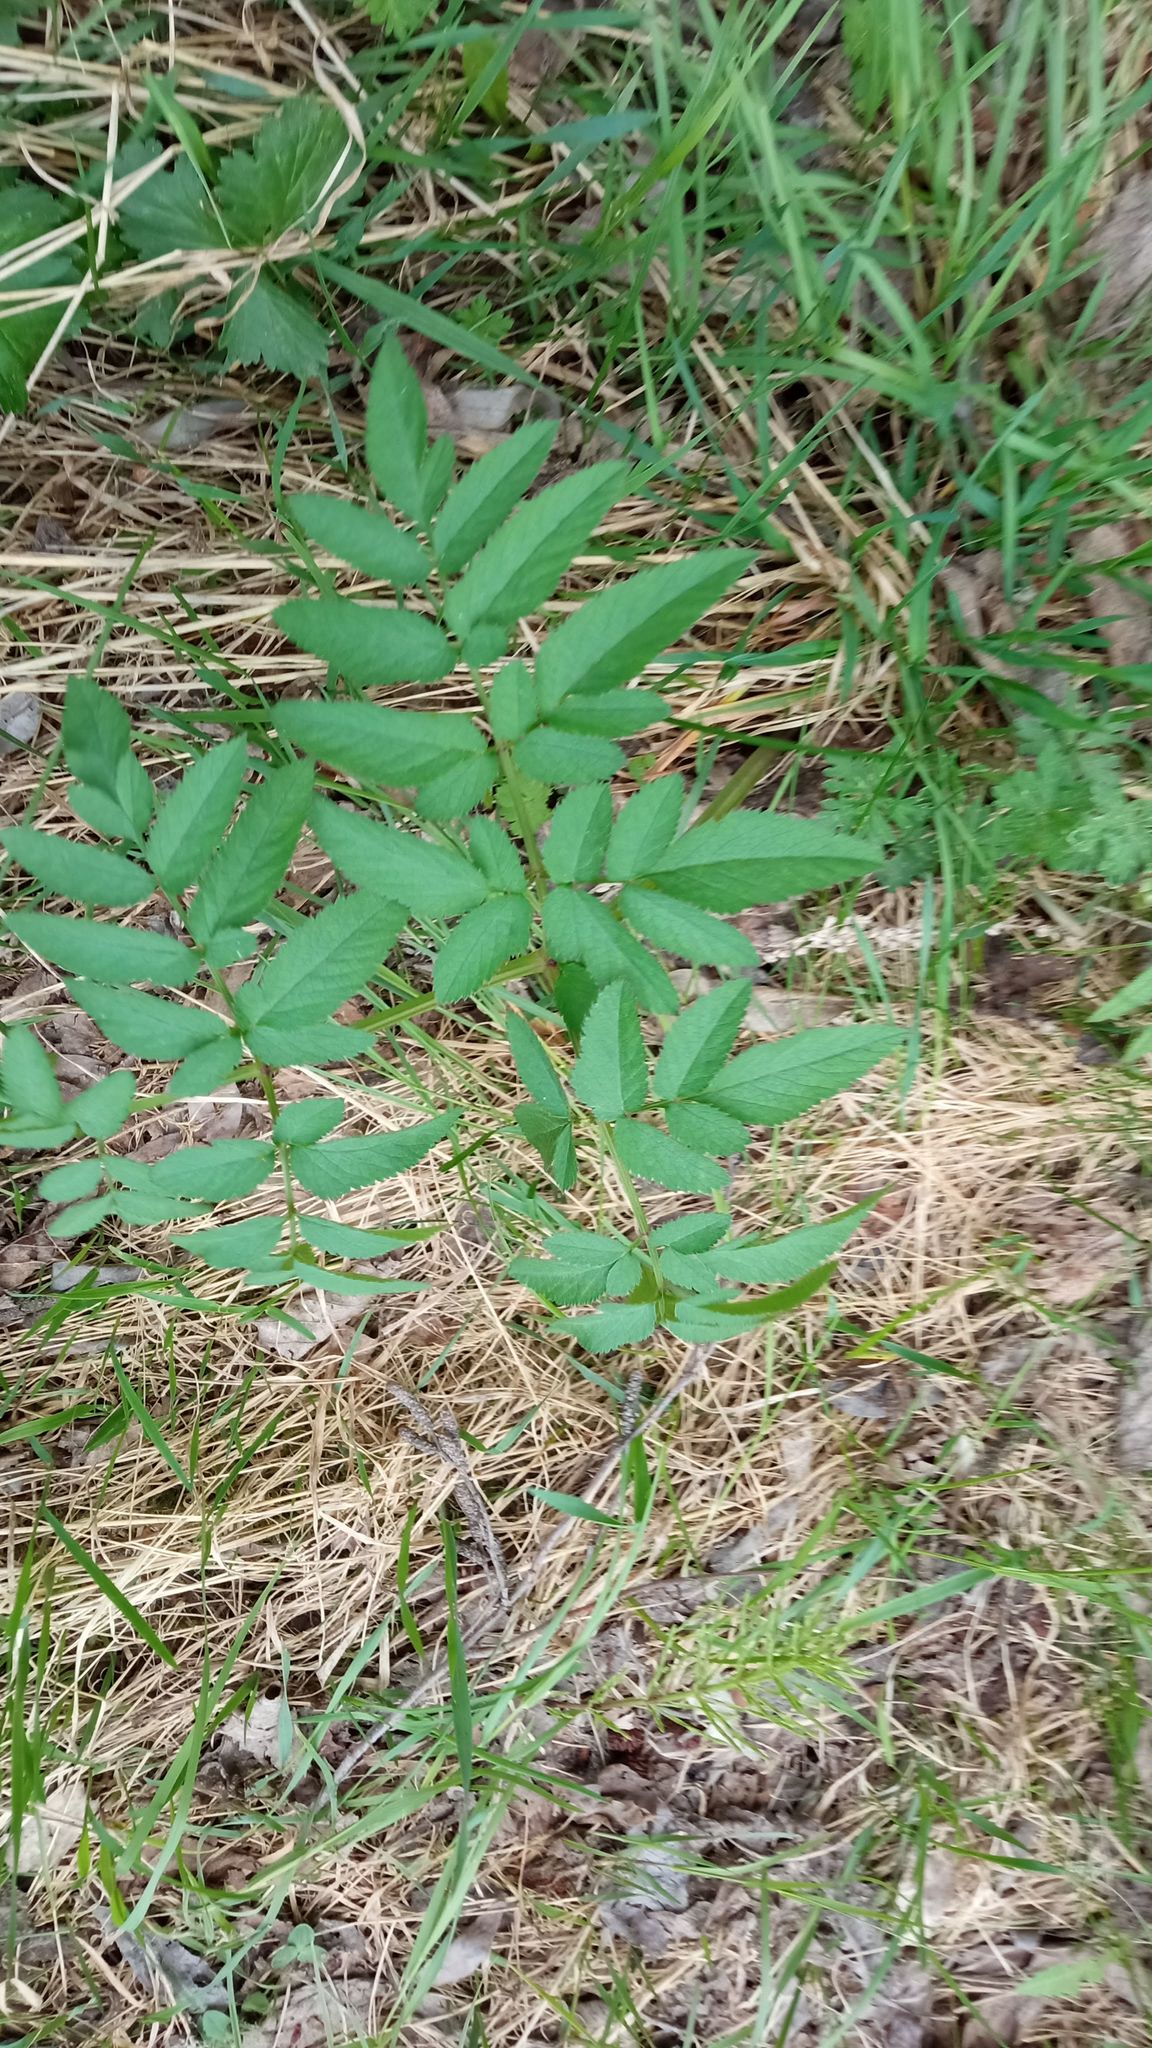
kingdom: Plantae
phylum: Tracheophyta
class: Magnoliopsida
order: Apiales
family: Apiaceae
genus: Angelica
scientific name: Angelica sylvestris
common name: Wild angelica
